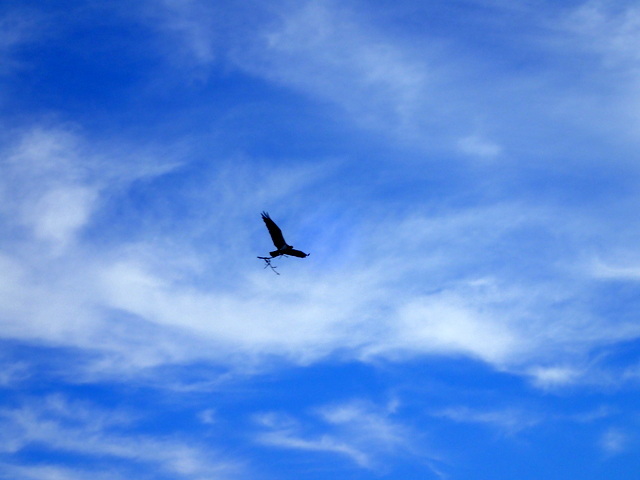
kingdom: Animalia
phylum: Chordata
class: Aves
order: Accipitriformes
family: Pandionidae
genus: Pandion
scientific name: Pandion haliaetus
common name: Osprey
